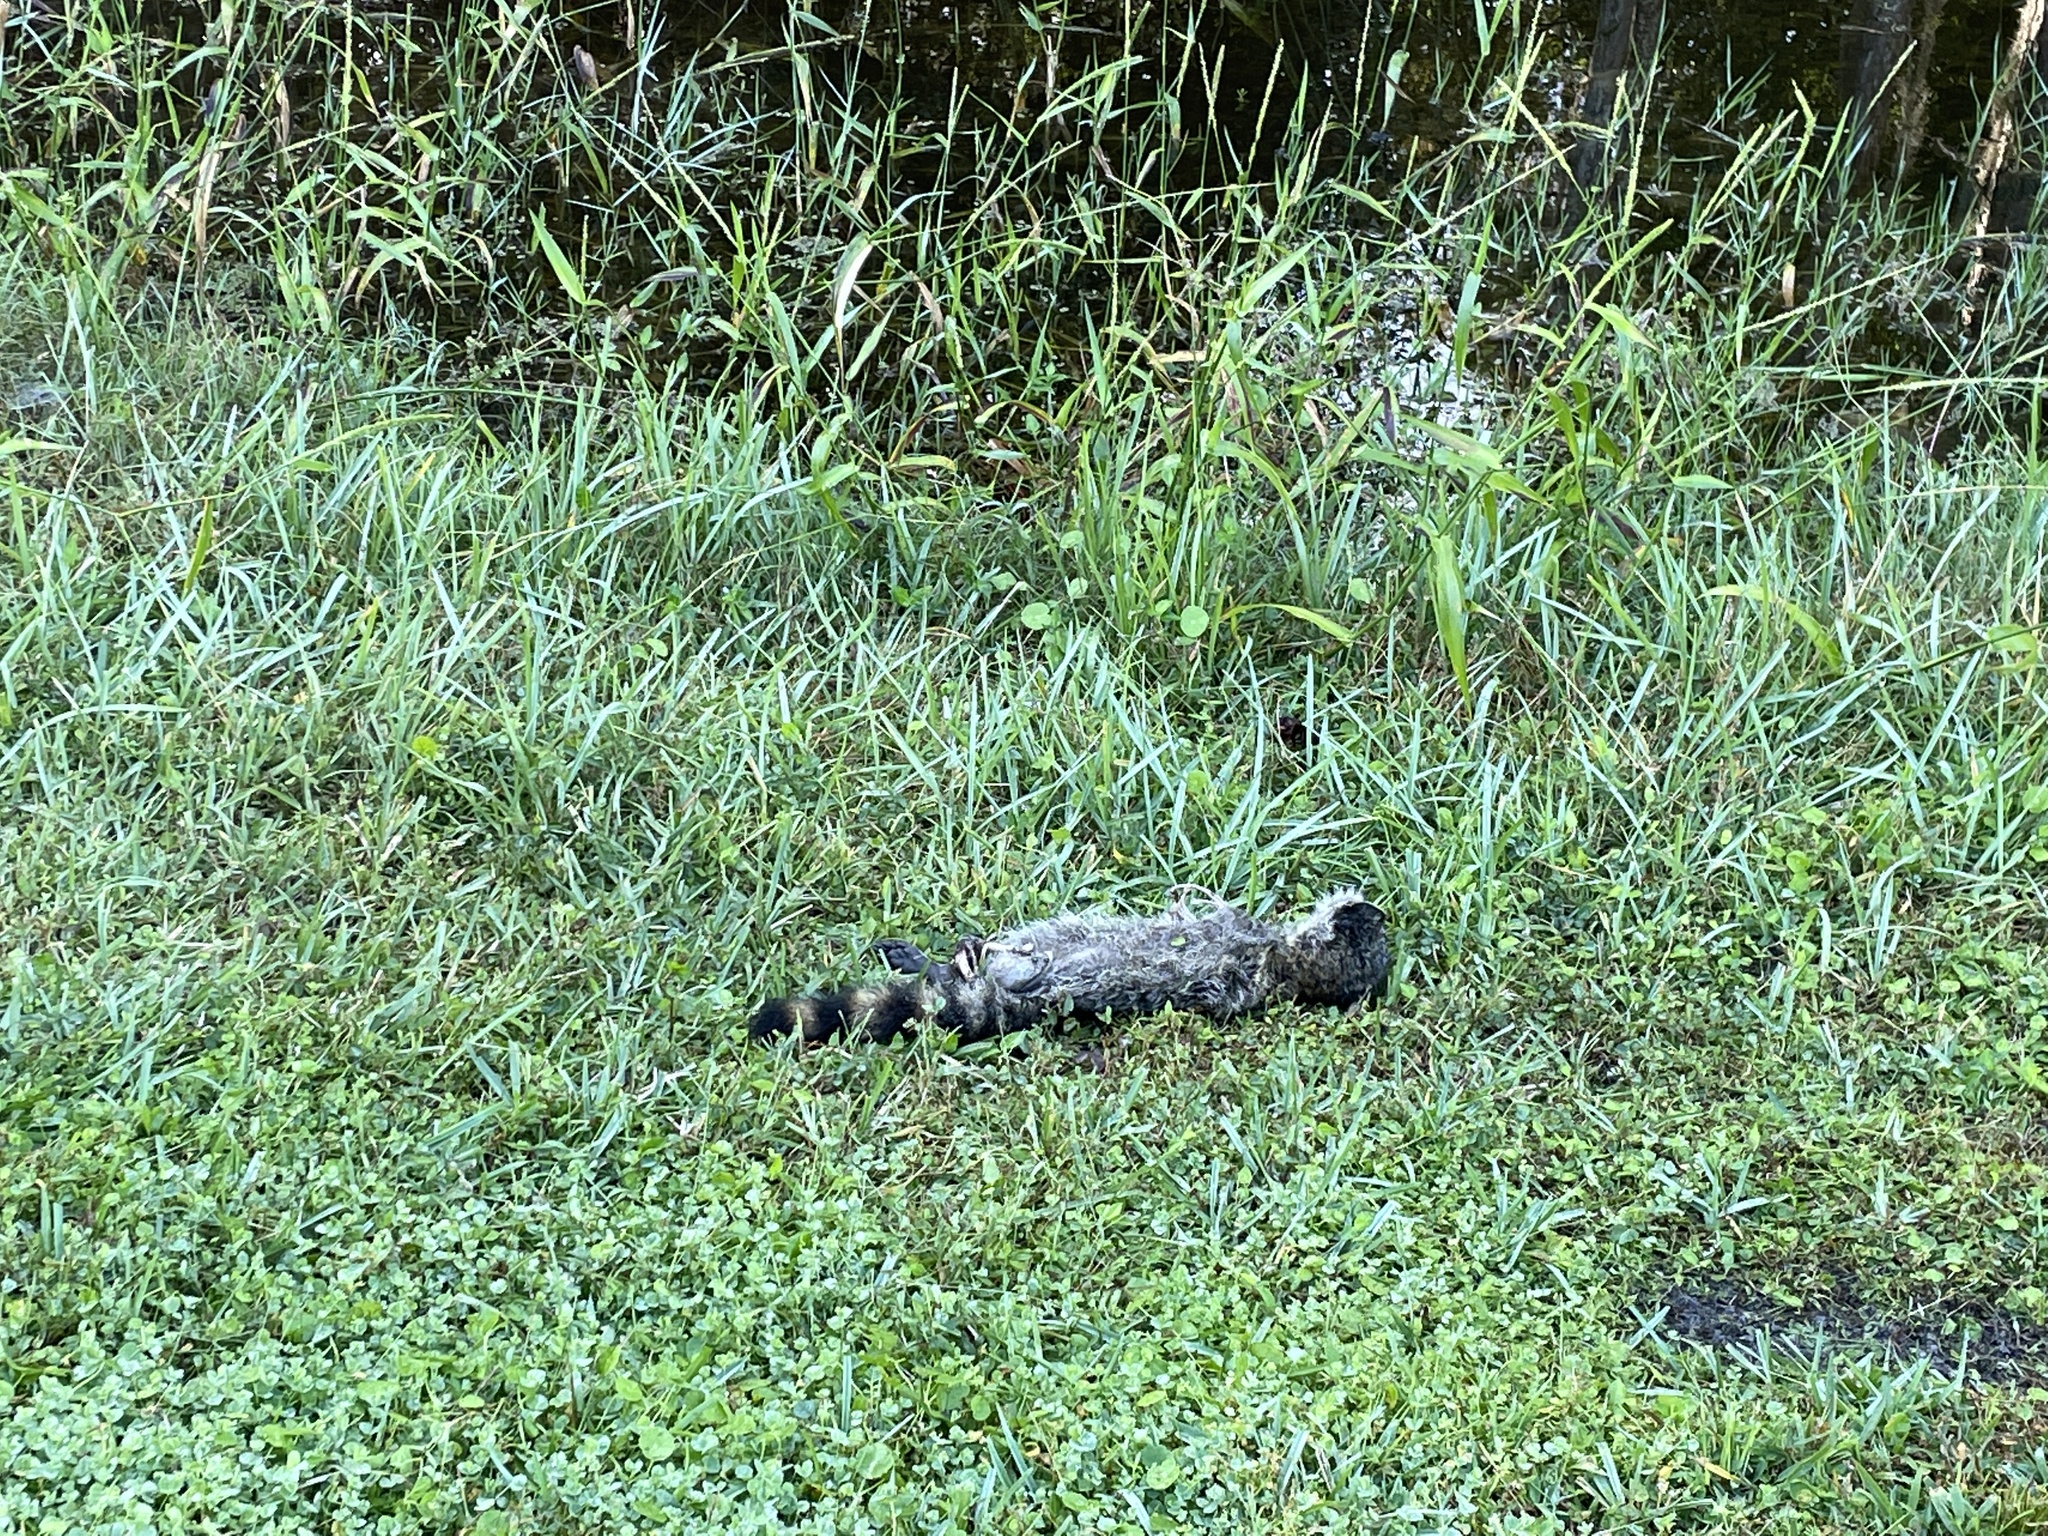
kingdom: Animalia
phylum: Chordata
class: Mammalia
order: Carnivora
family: Procyonidae
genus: Procyon
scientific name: Procyon lotor
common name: Raccoon
